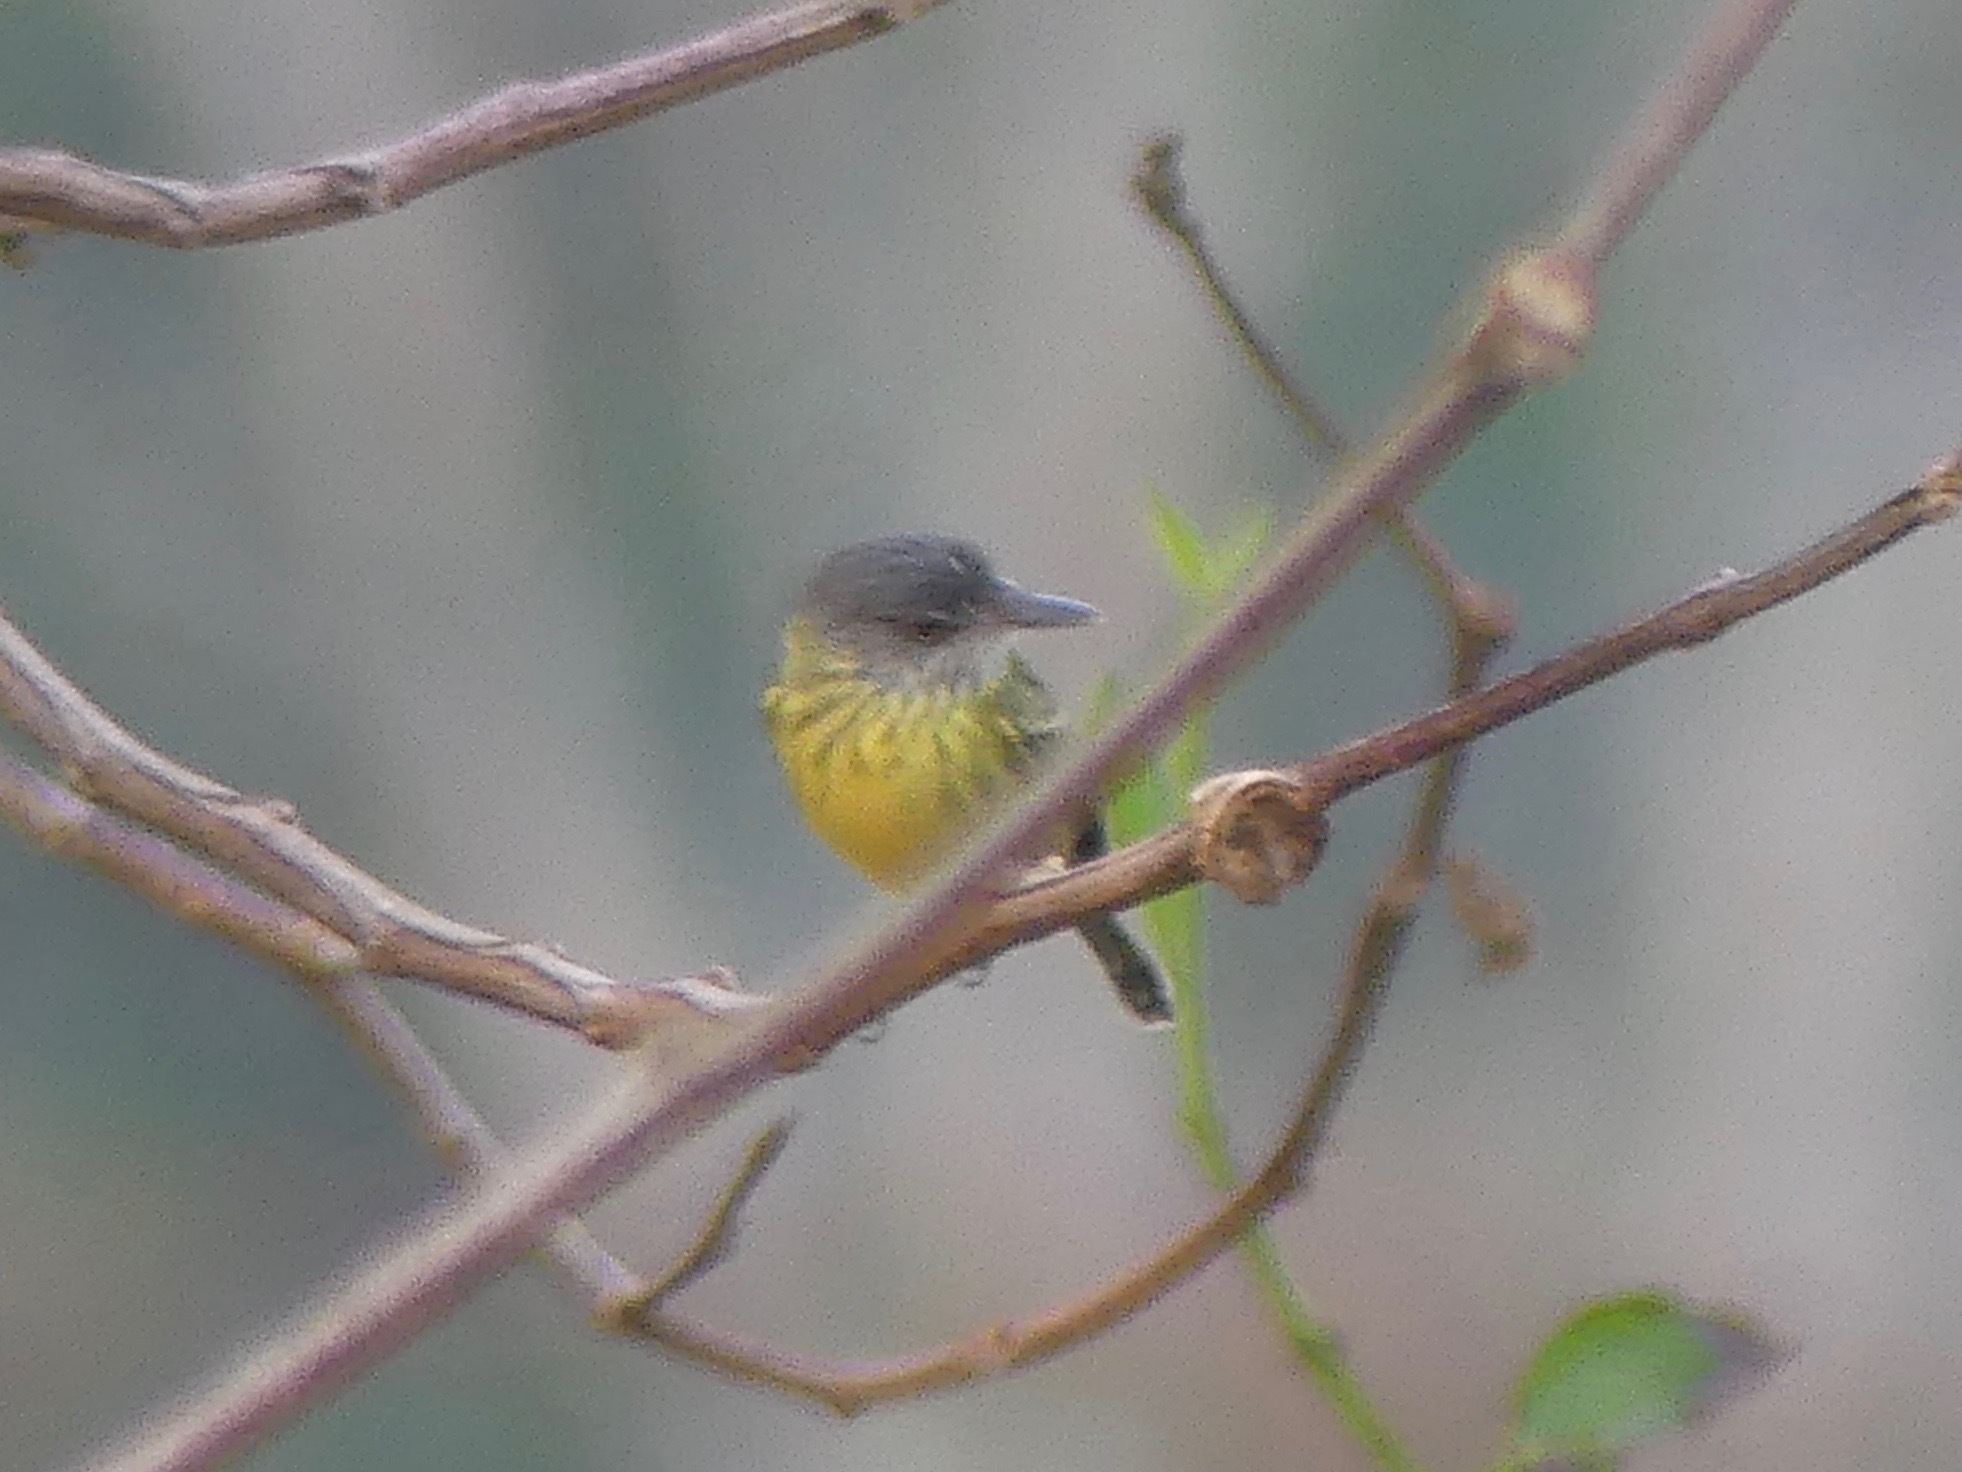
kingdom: Animalia
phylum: Chordata
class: Aves
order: Passeriformes
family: Tyrannidae
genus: Todirostrum
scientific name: Todirostrum maculatum
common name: Spotted tody-flycatcher
